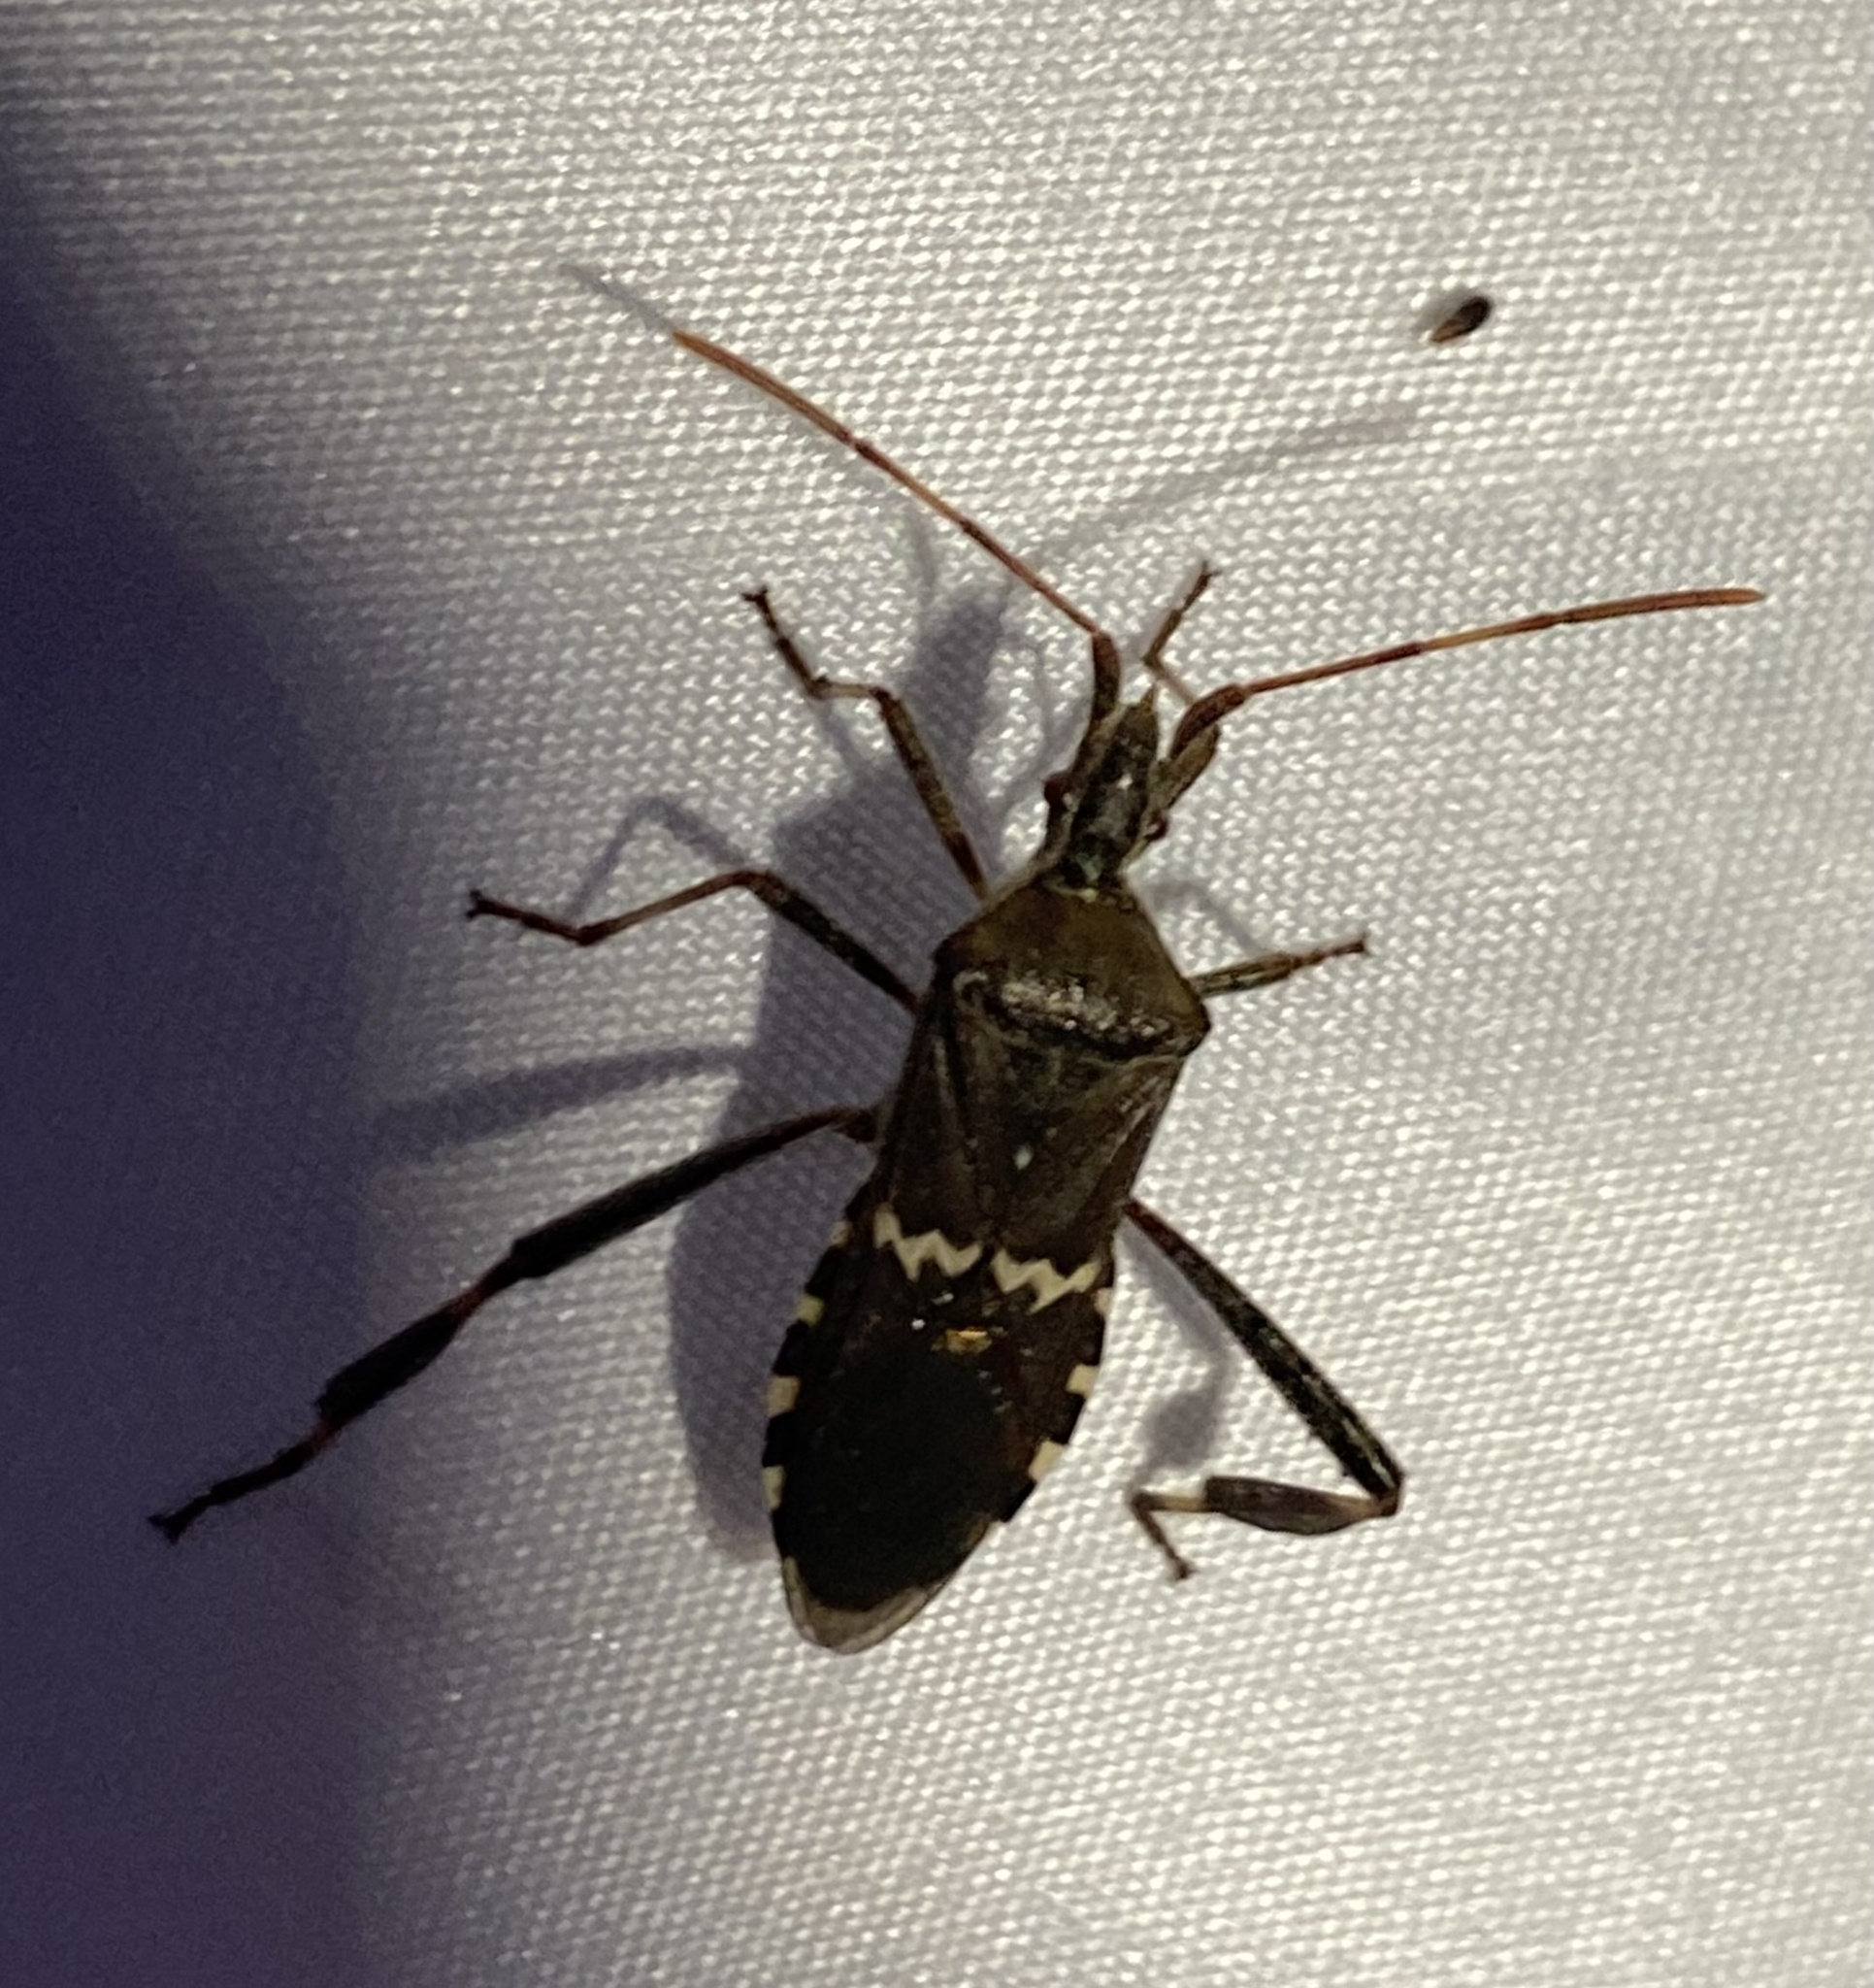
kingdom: Animalia
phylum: Arthropoda
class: Insecta
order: Hemiptera
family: Coreidae
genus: Leptoglossus
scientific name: Leptoglossus clypealis
